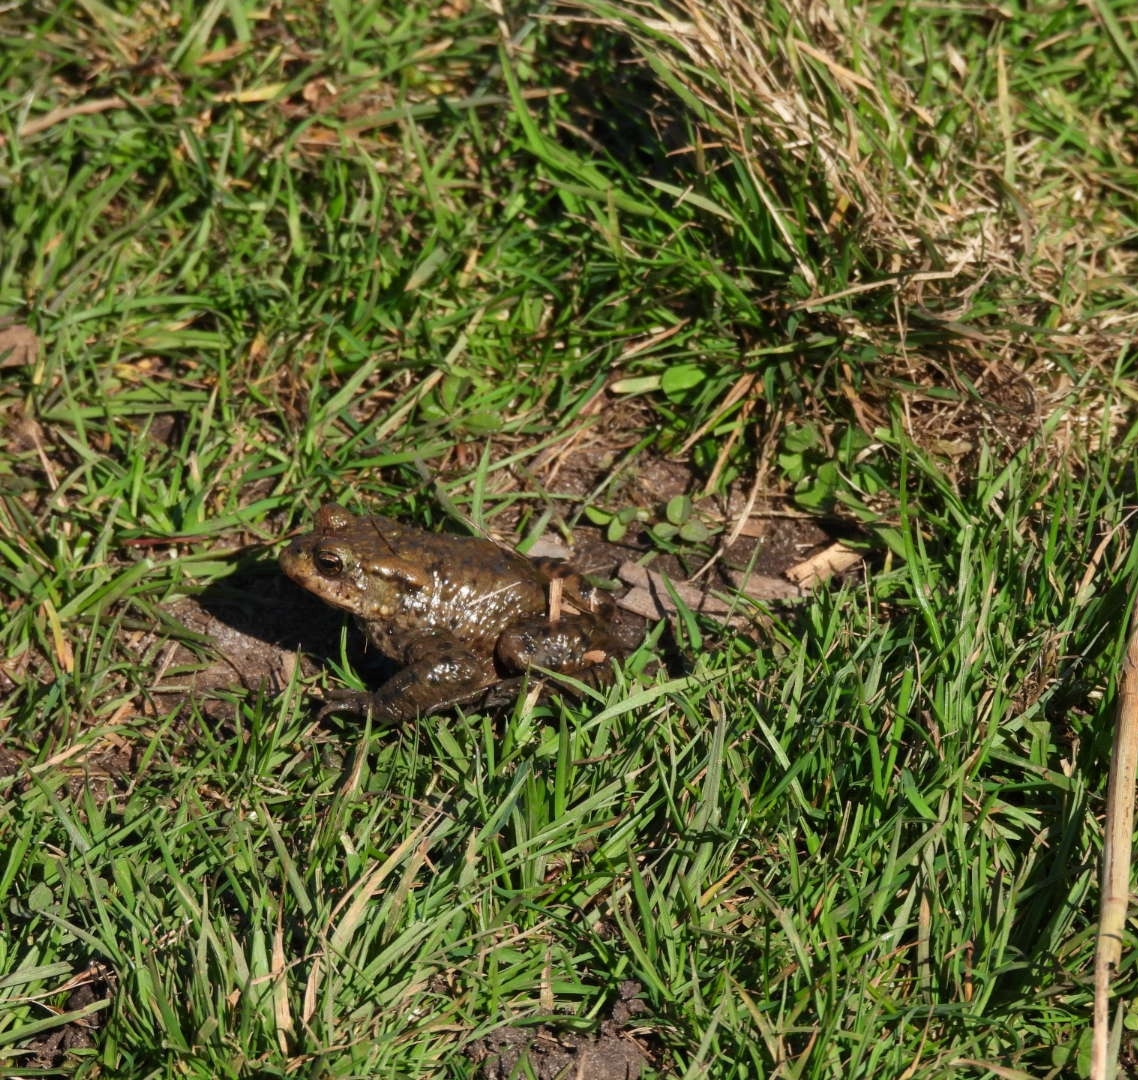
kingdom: Animalia
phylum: Chordata
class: Amphibia
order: Anura
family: Bufonidae
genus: Bufo
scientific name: Bufo bufo
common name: Common toad
